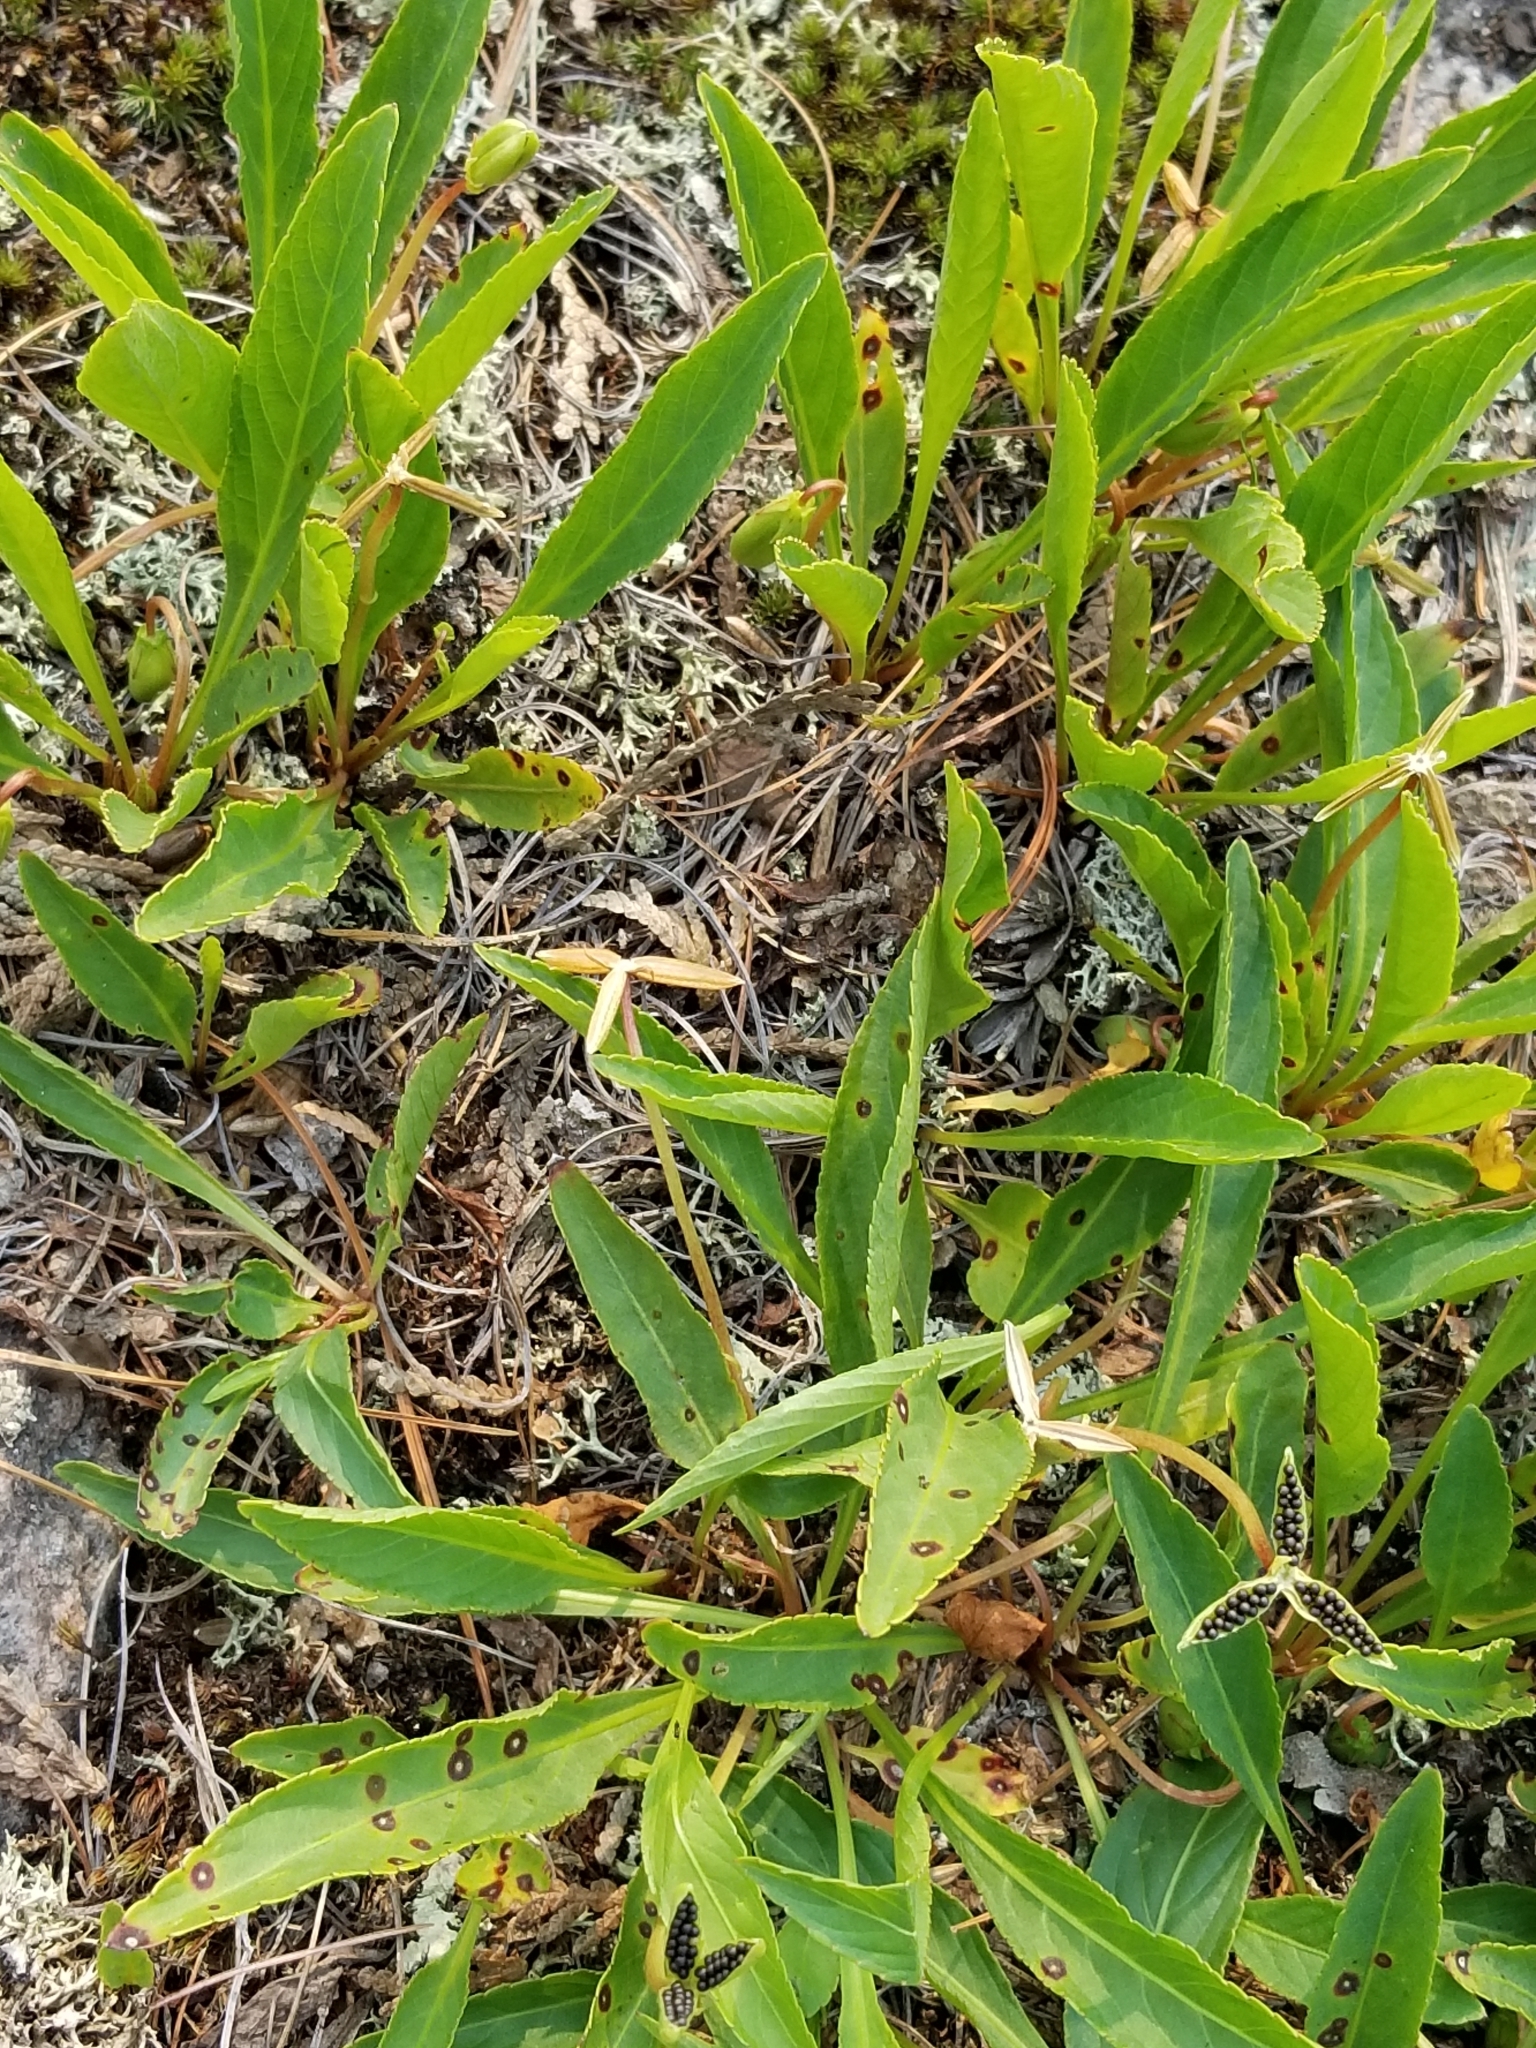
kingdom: Plantae
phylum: Tracheophyta
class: Magnoliopsida
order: Malpighiales
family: Violaceae
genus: Viola
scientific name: Viola lanceolata
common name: Bog white violet
